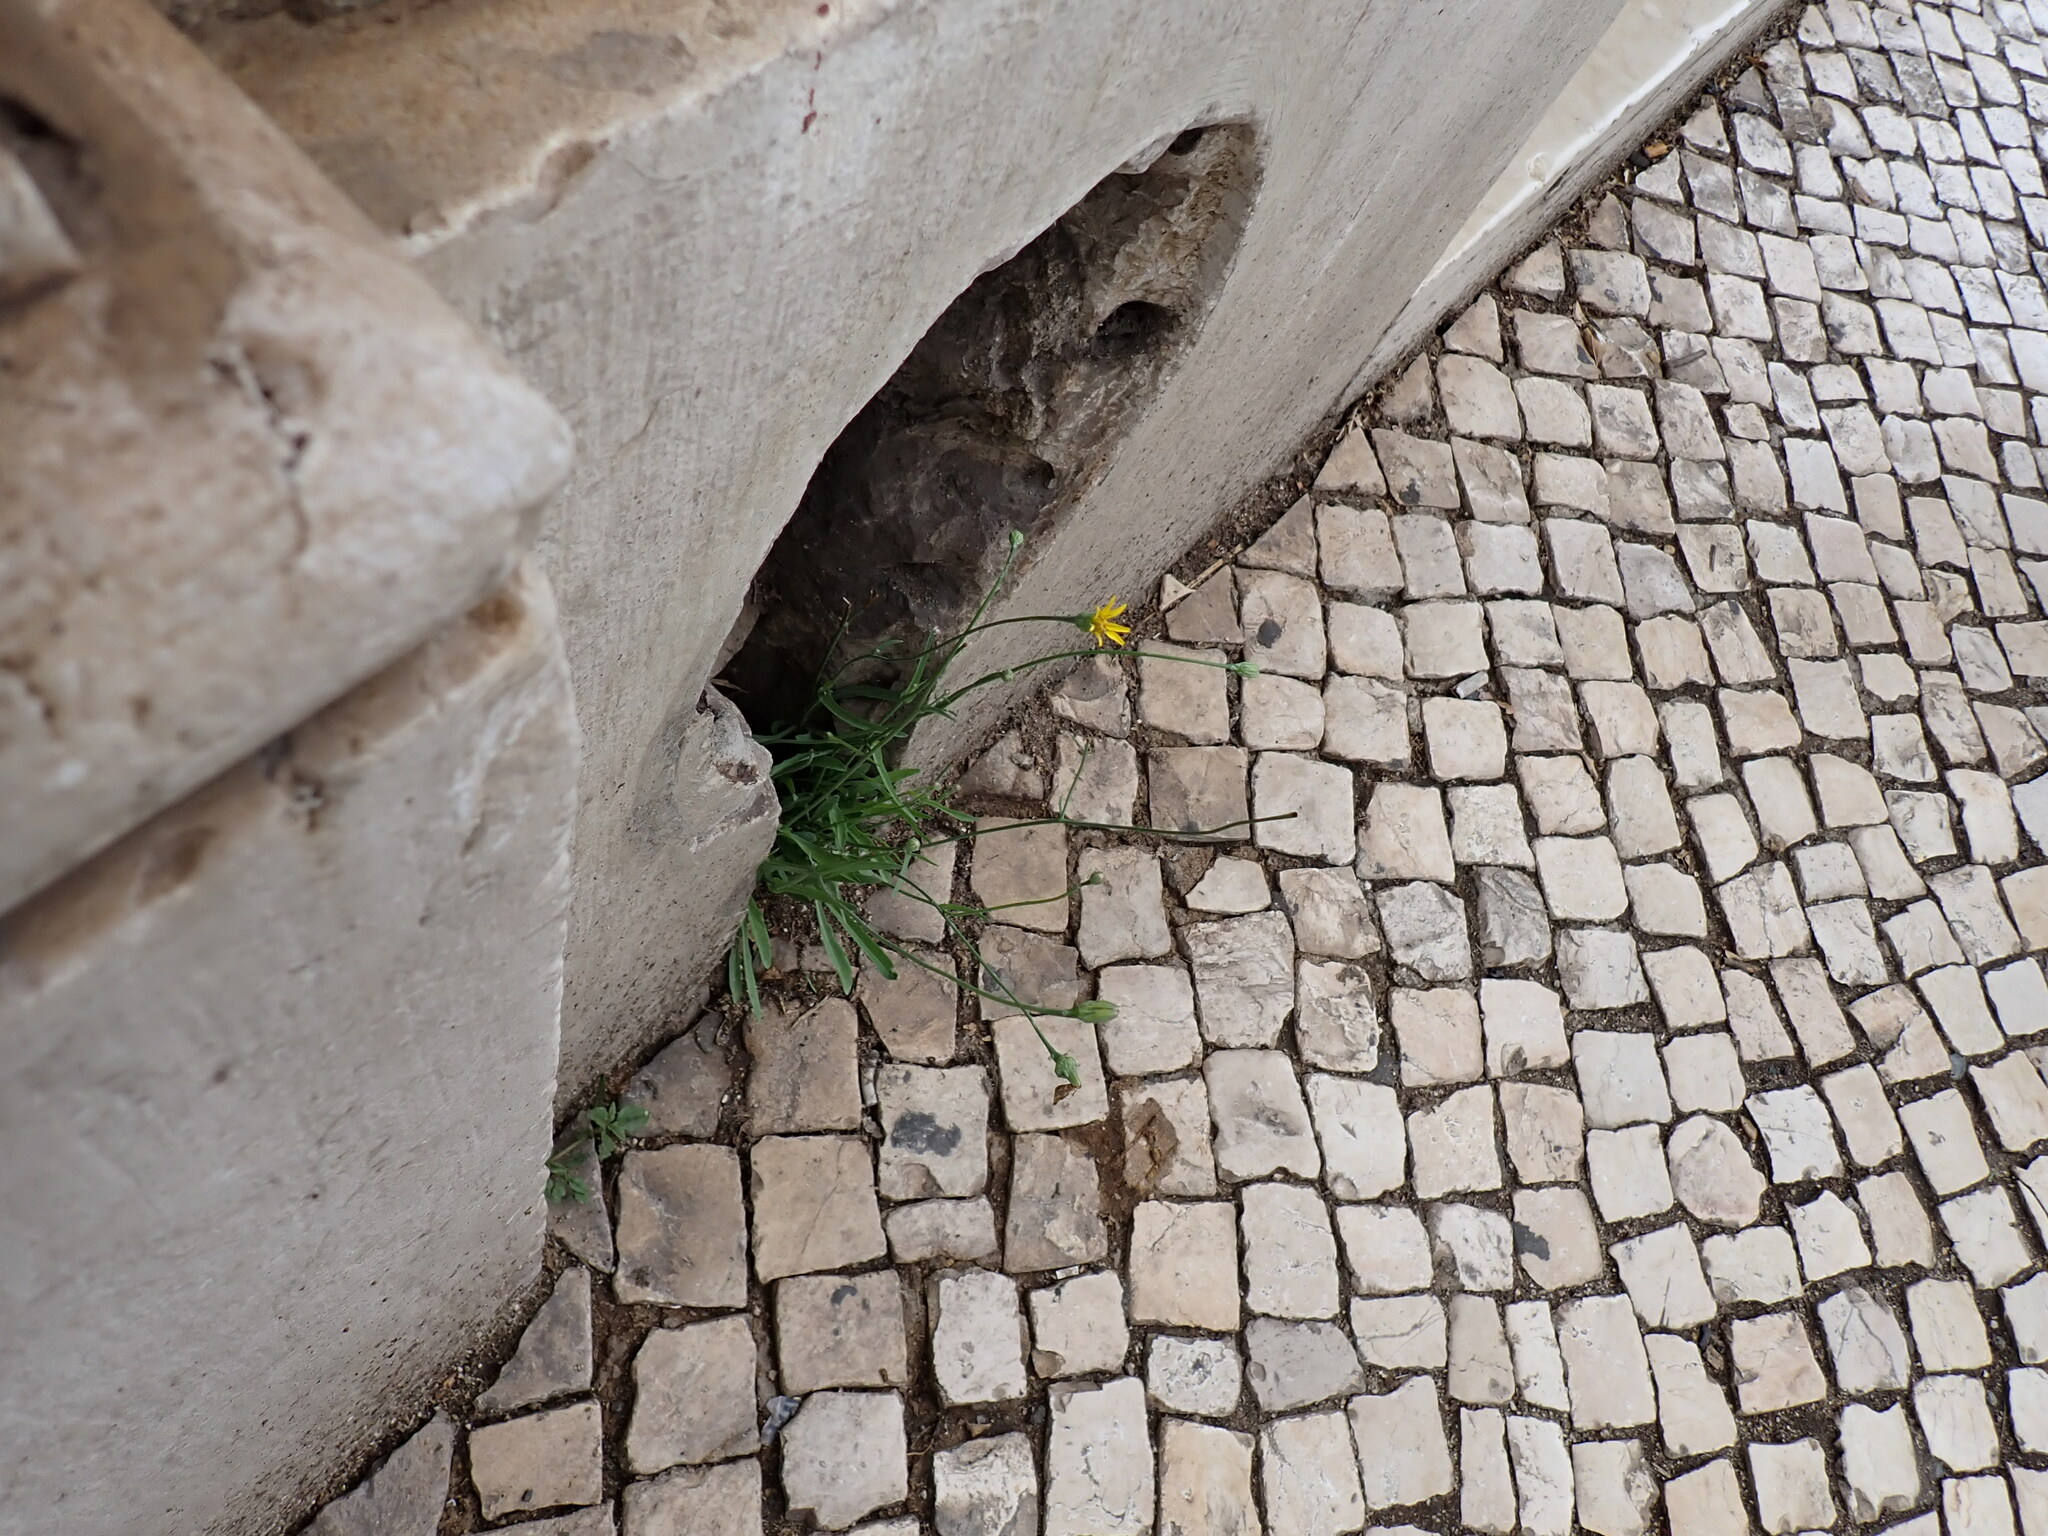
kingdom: Plantae
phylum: Tracheophyta
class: Magnoliopsida
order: Asterales
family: Asteraceae
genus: Reichardia
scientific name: Reichardia picroides
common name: Common brighteyes
